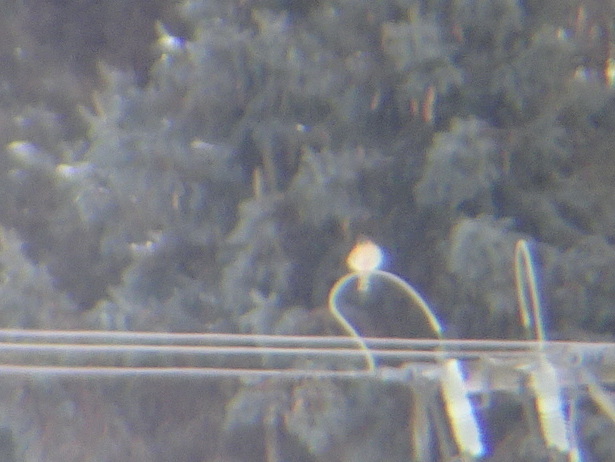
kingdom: Animalia
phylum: Chordata
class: Aves
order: Falconiformes
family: Falconidae
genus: Falco
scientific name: Falco sparverius
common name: American kestrel
